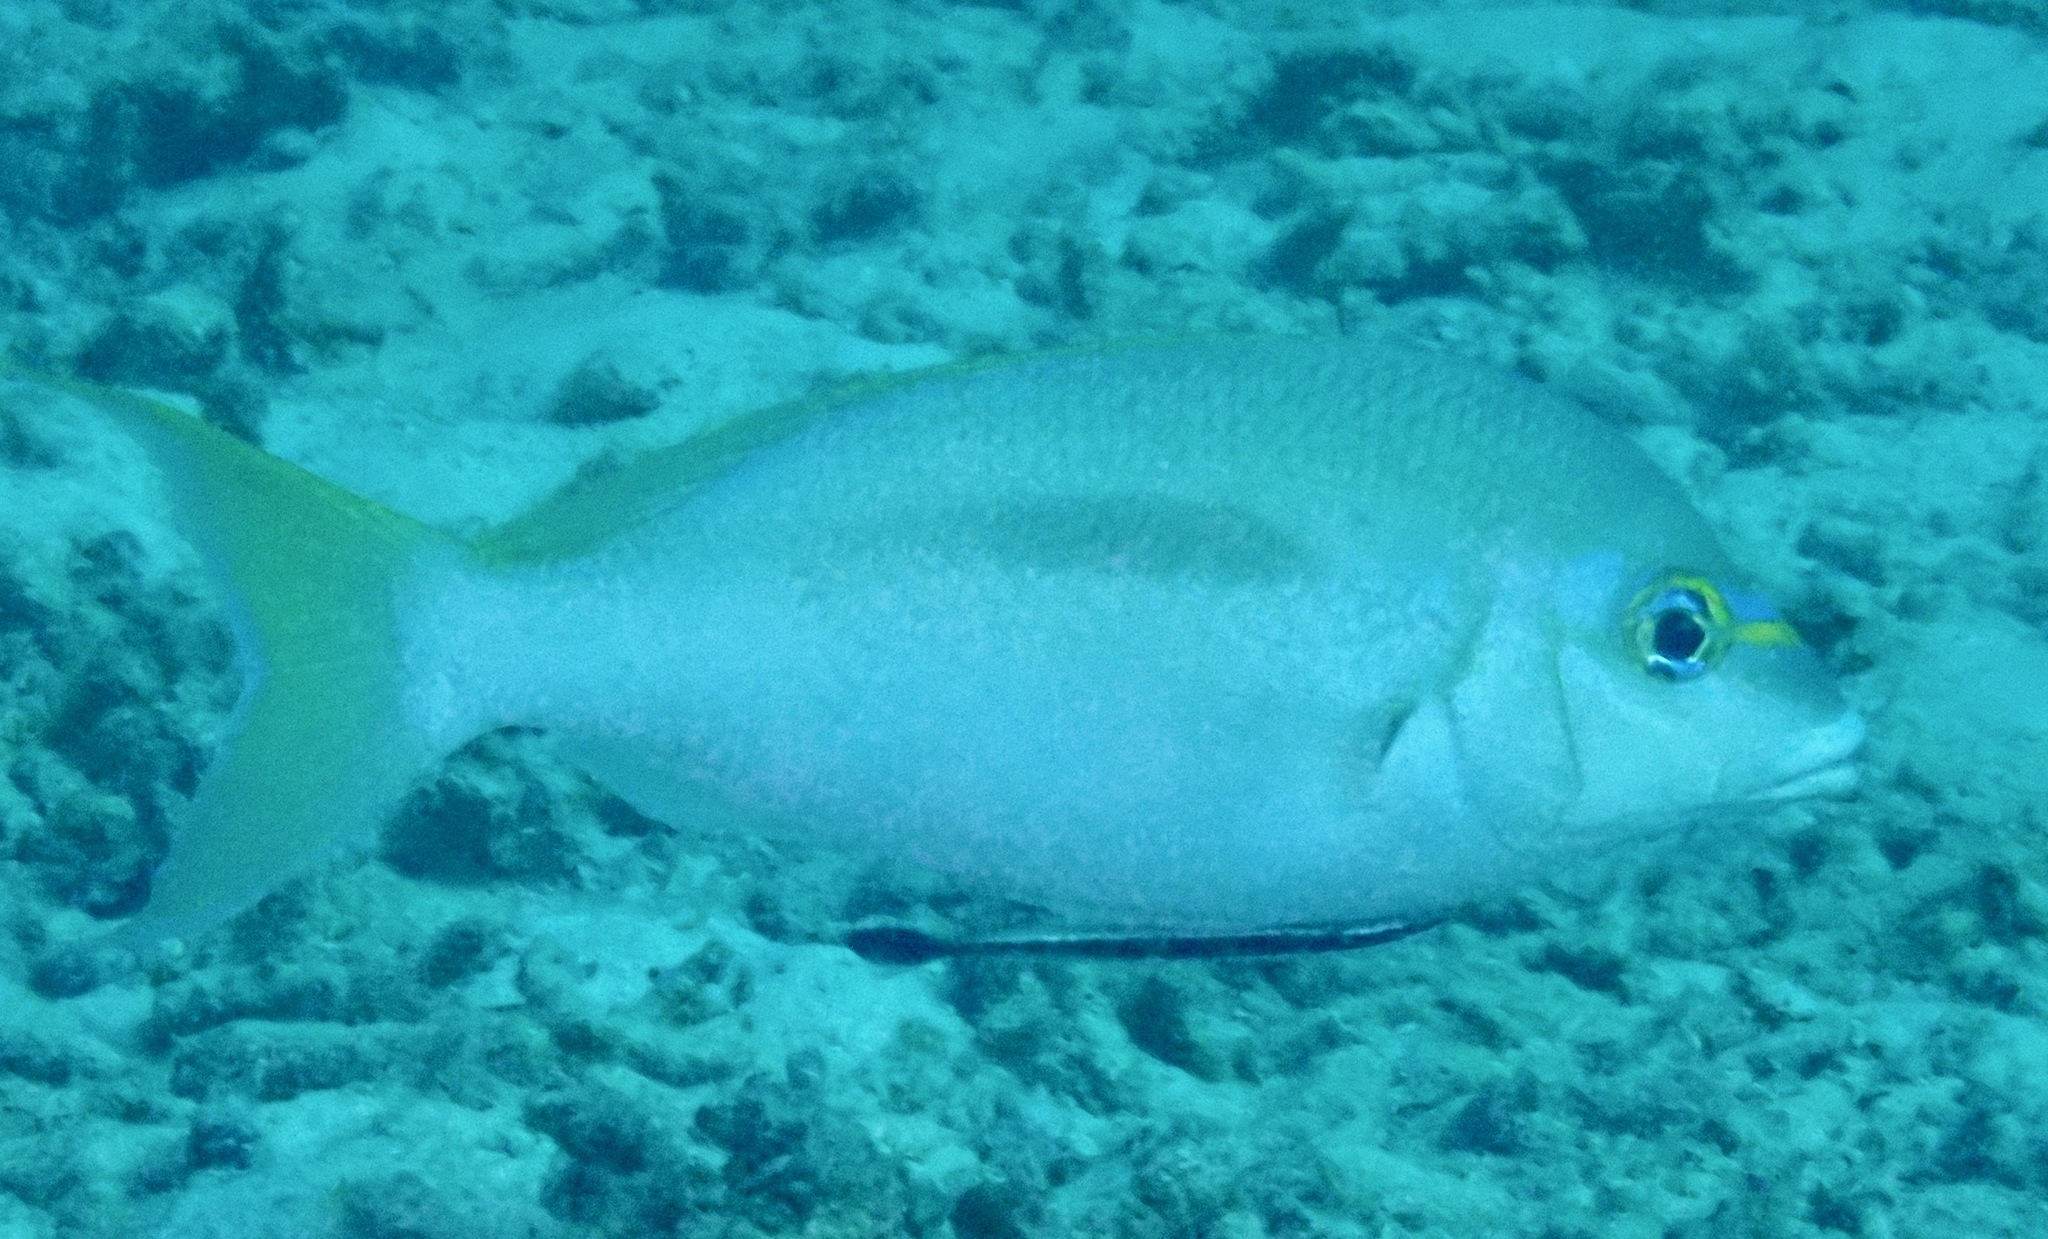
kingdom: Animalia
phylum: Chordata
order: Perciformes
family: Nemipteridae
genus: Scolopsis
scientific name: Scolopsis monogramma
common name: Monogrammed monocle bream
